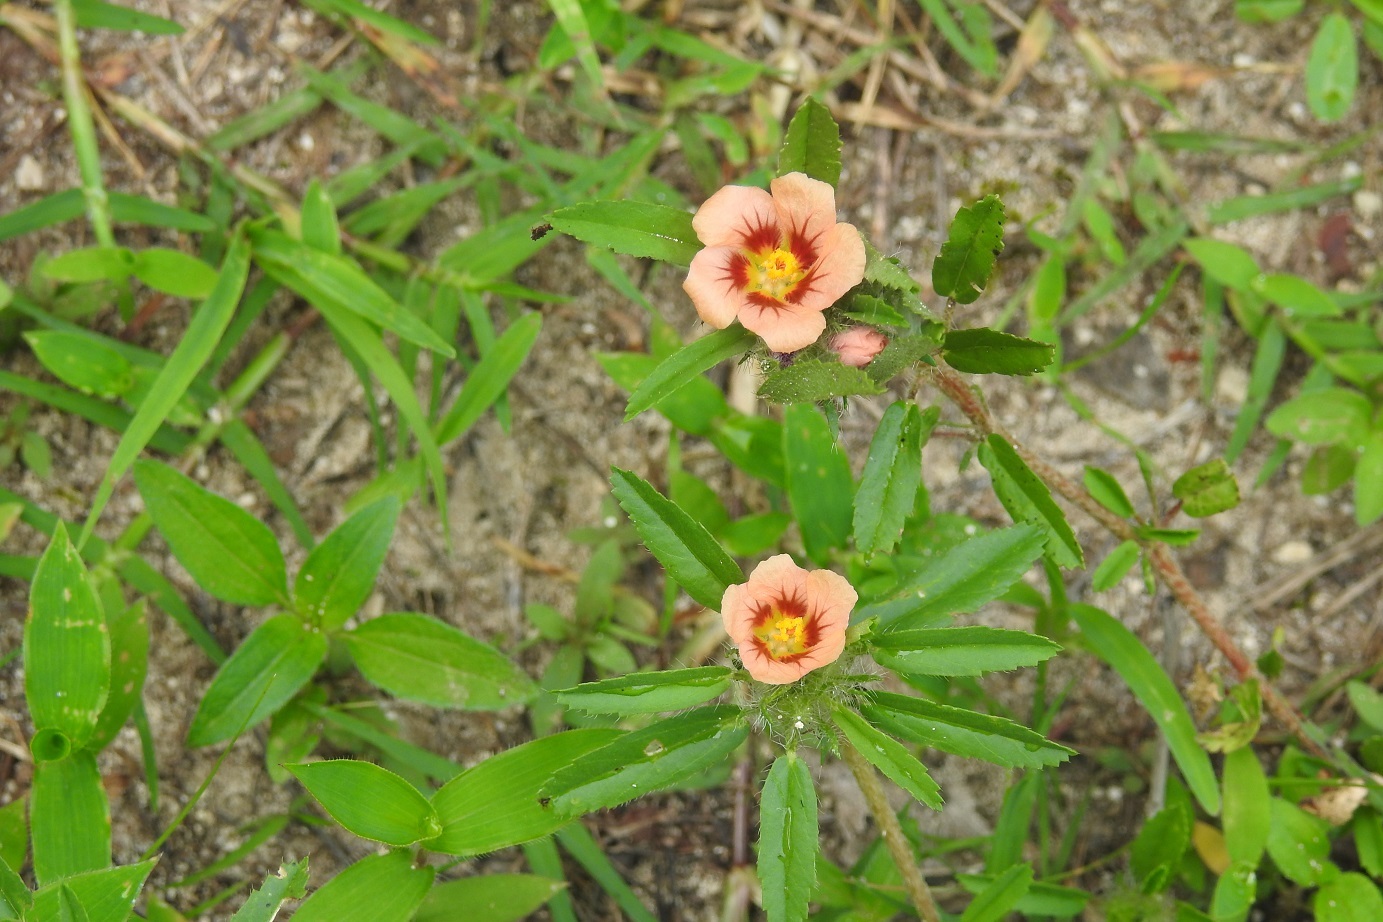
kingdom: Plantae
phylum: Tracheophyta
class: Magnoliopsida
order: Malvales
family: Malvaceae
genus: Sida
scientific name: Sida ciliaris
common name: Bracted fanpetals
